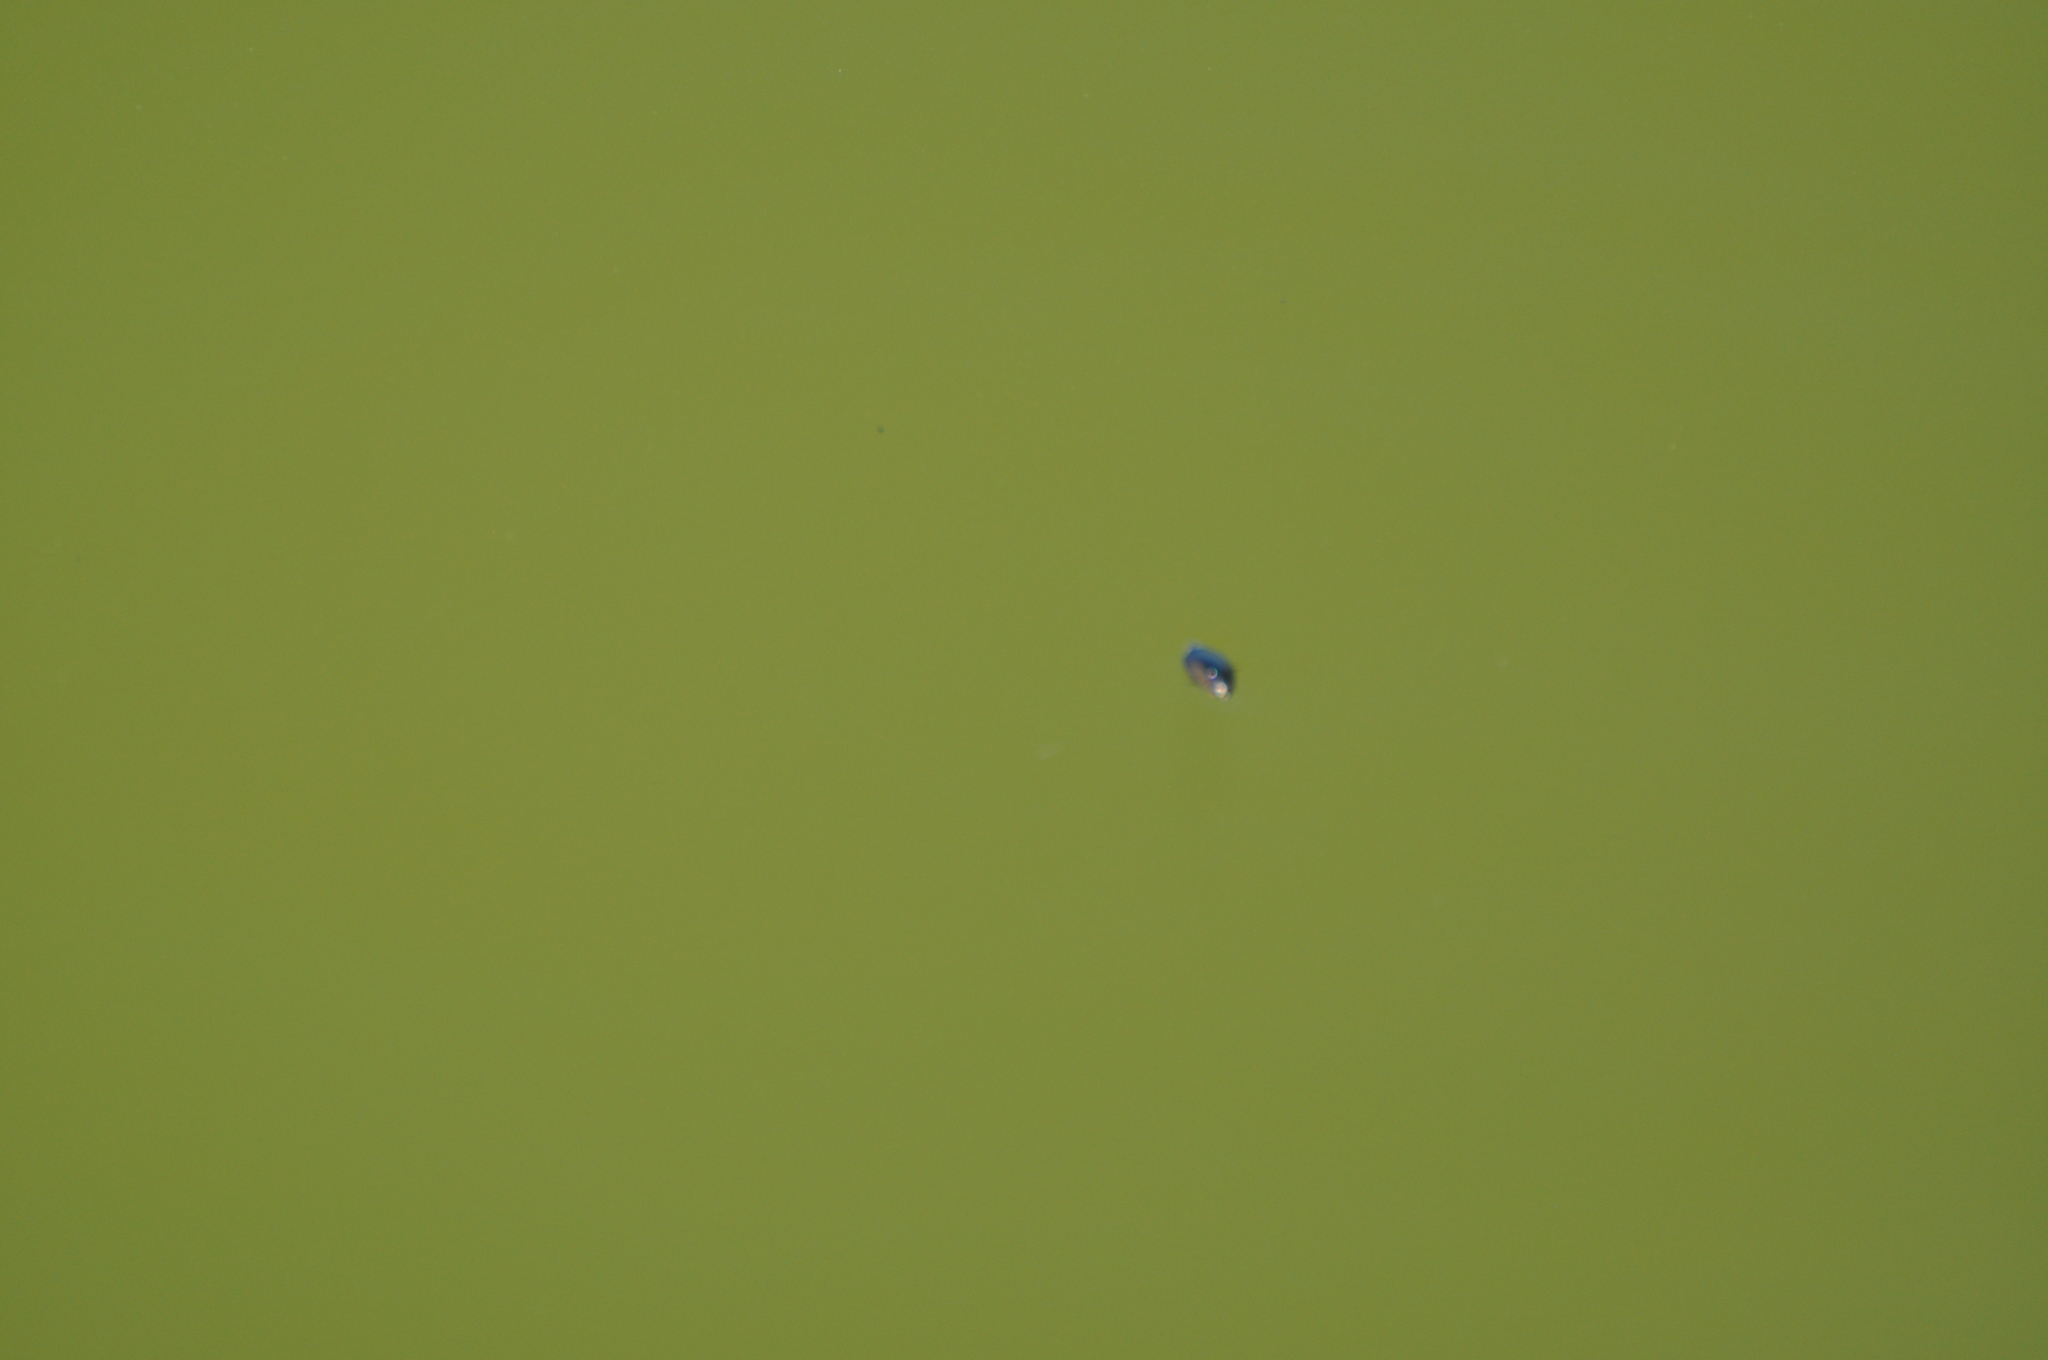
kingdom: Animalia
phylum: Arthropoda
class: Insecta
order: Coleoptera
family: Gyrinidae
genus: Dineutus
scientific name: Dineutus
